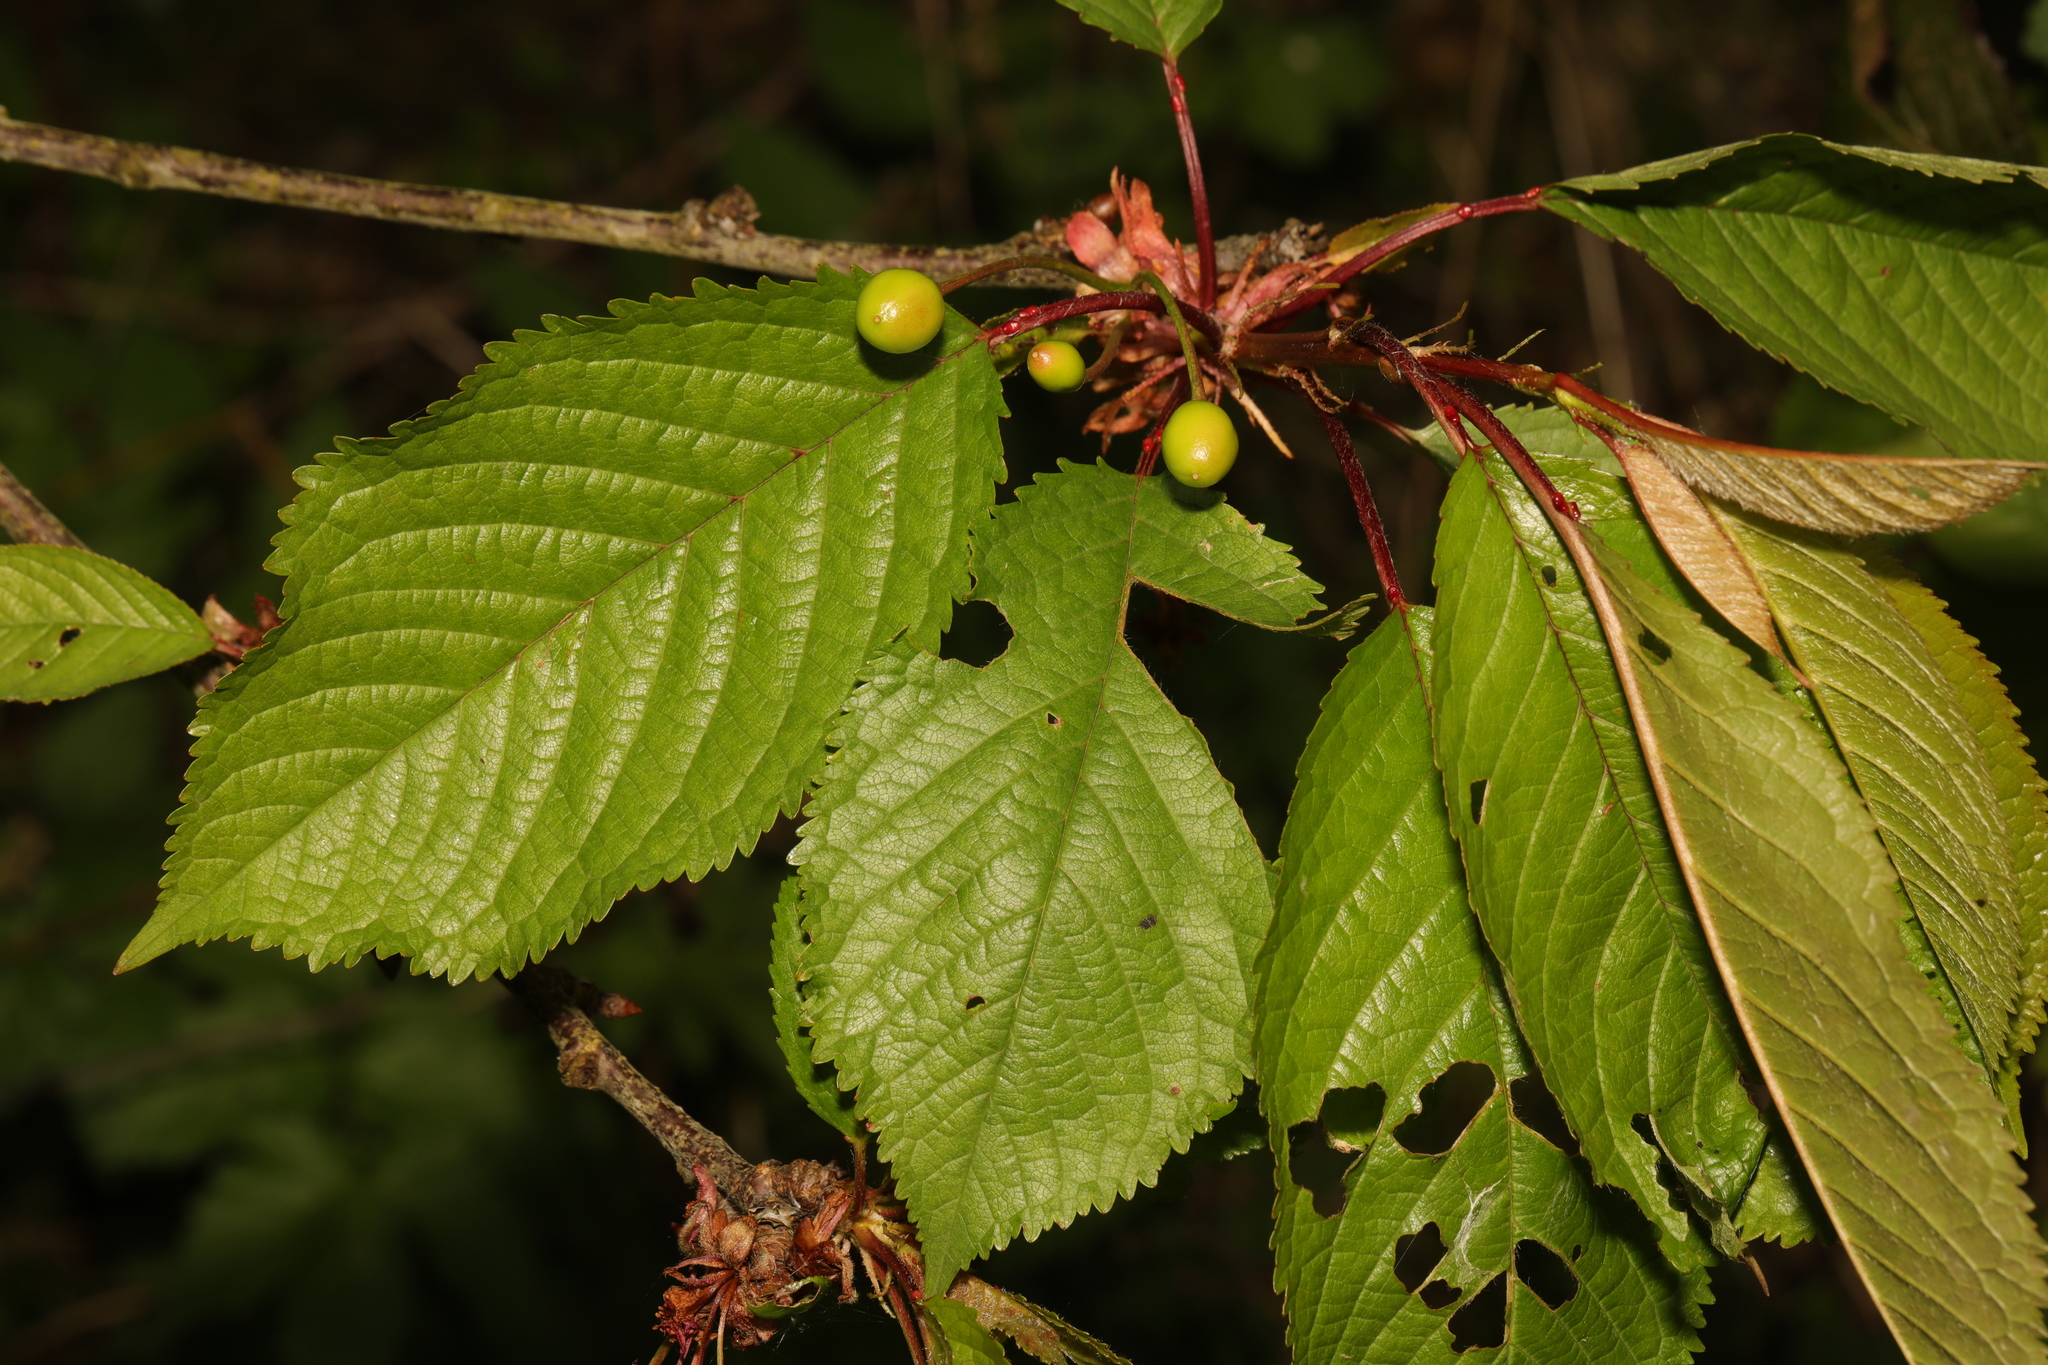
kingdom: Plantae
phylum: Tracheophyta
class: Magnoliopsida
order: Rosales
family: Rosaceae
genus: Prunus
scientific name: Prunus avium
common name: Sweet cherry
